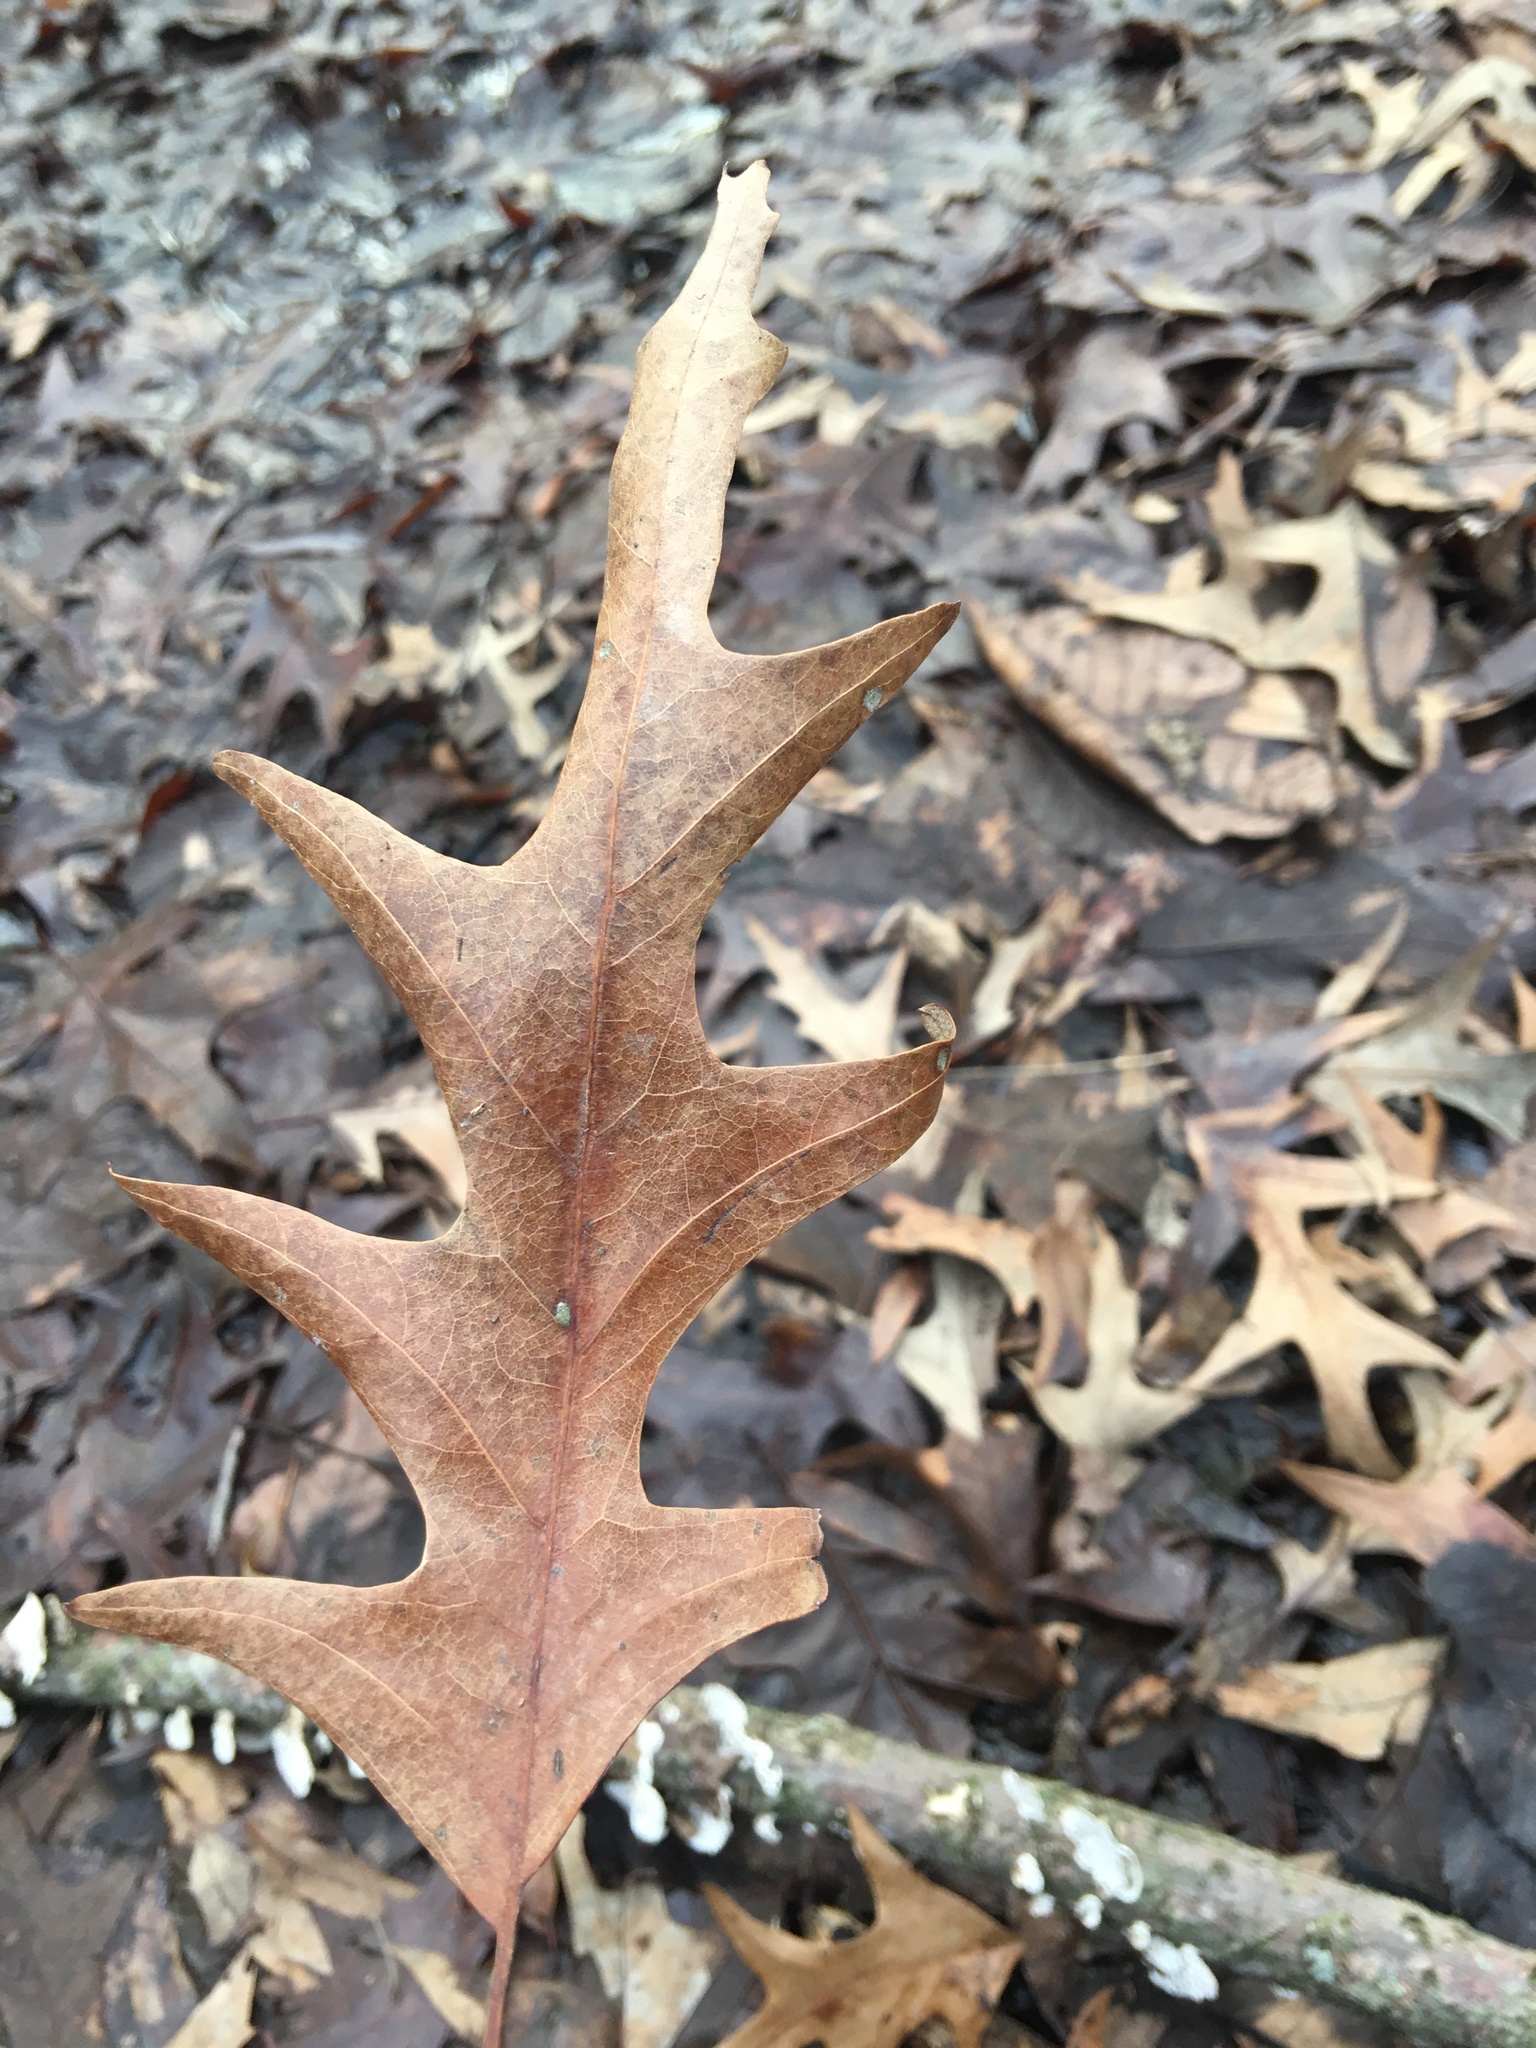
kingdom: Plantae
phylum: Tracheophyta
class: Magnoliopsida
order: Fagales
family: Fagaceae
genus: Quercus
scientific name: Quercus falcata
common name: Southern red oak
